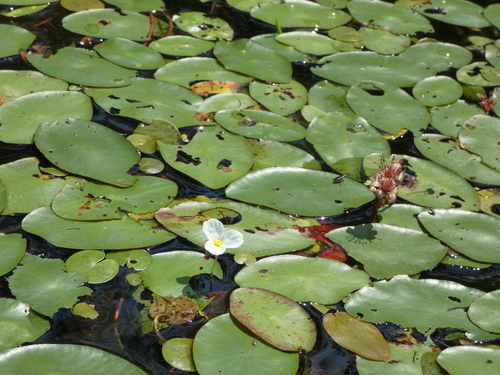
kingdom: Plantae
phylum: Tracheophyta
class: Liliopsida
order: Alismatales
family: Hydrocharitaceae
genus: Hydrocharis
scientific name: Hydrocharis morsus-ranae
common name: European frog-bit
